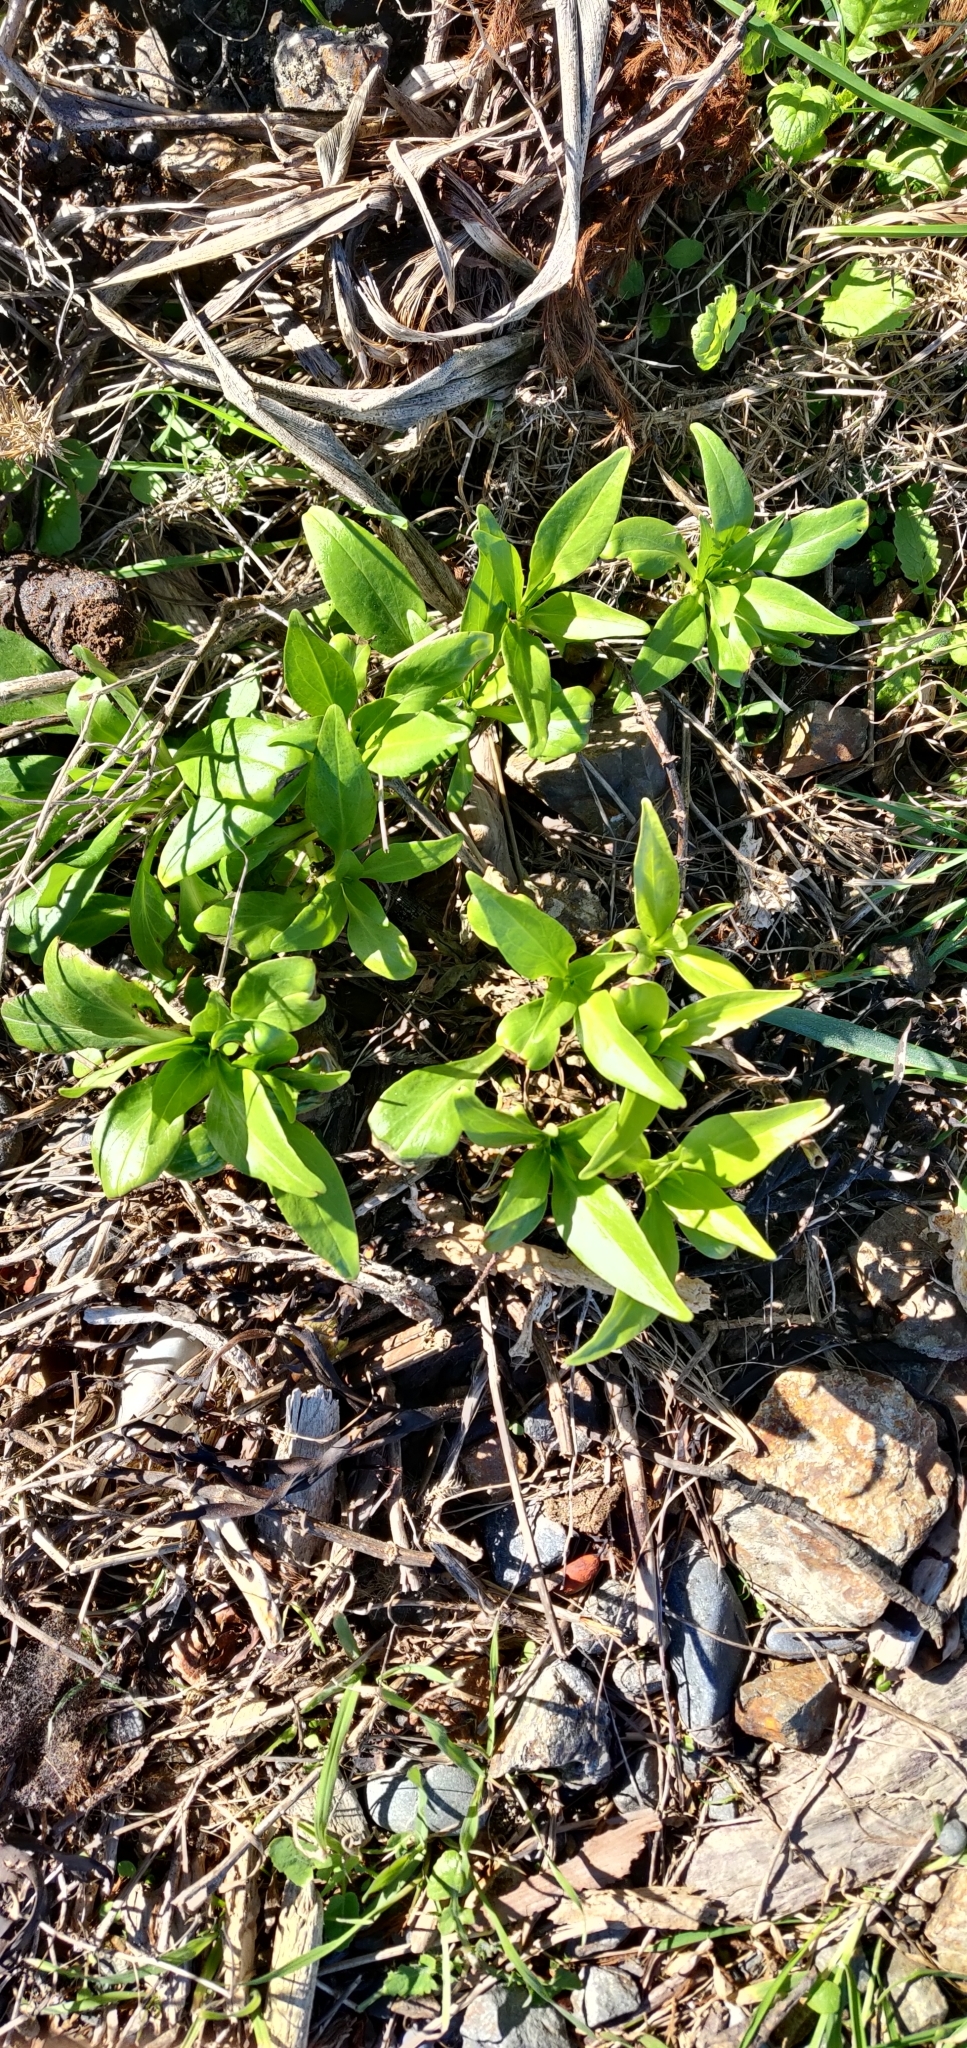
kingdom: Plantae
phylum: Tracheophyta
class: Magnoliopsida
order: Dipsacales
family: Caprifoliaceae
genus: Centranthus
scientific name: Centranthus ruber
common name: Red valerian
